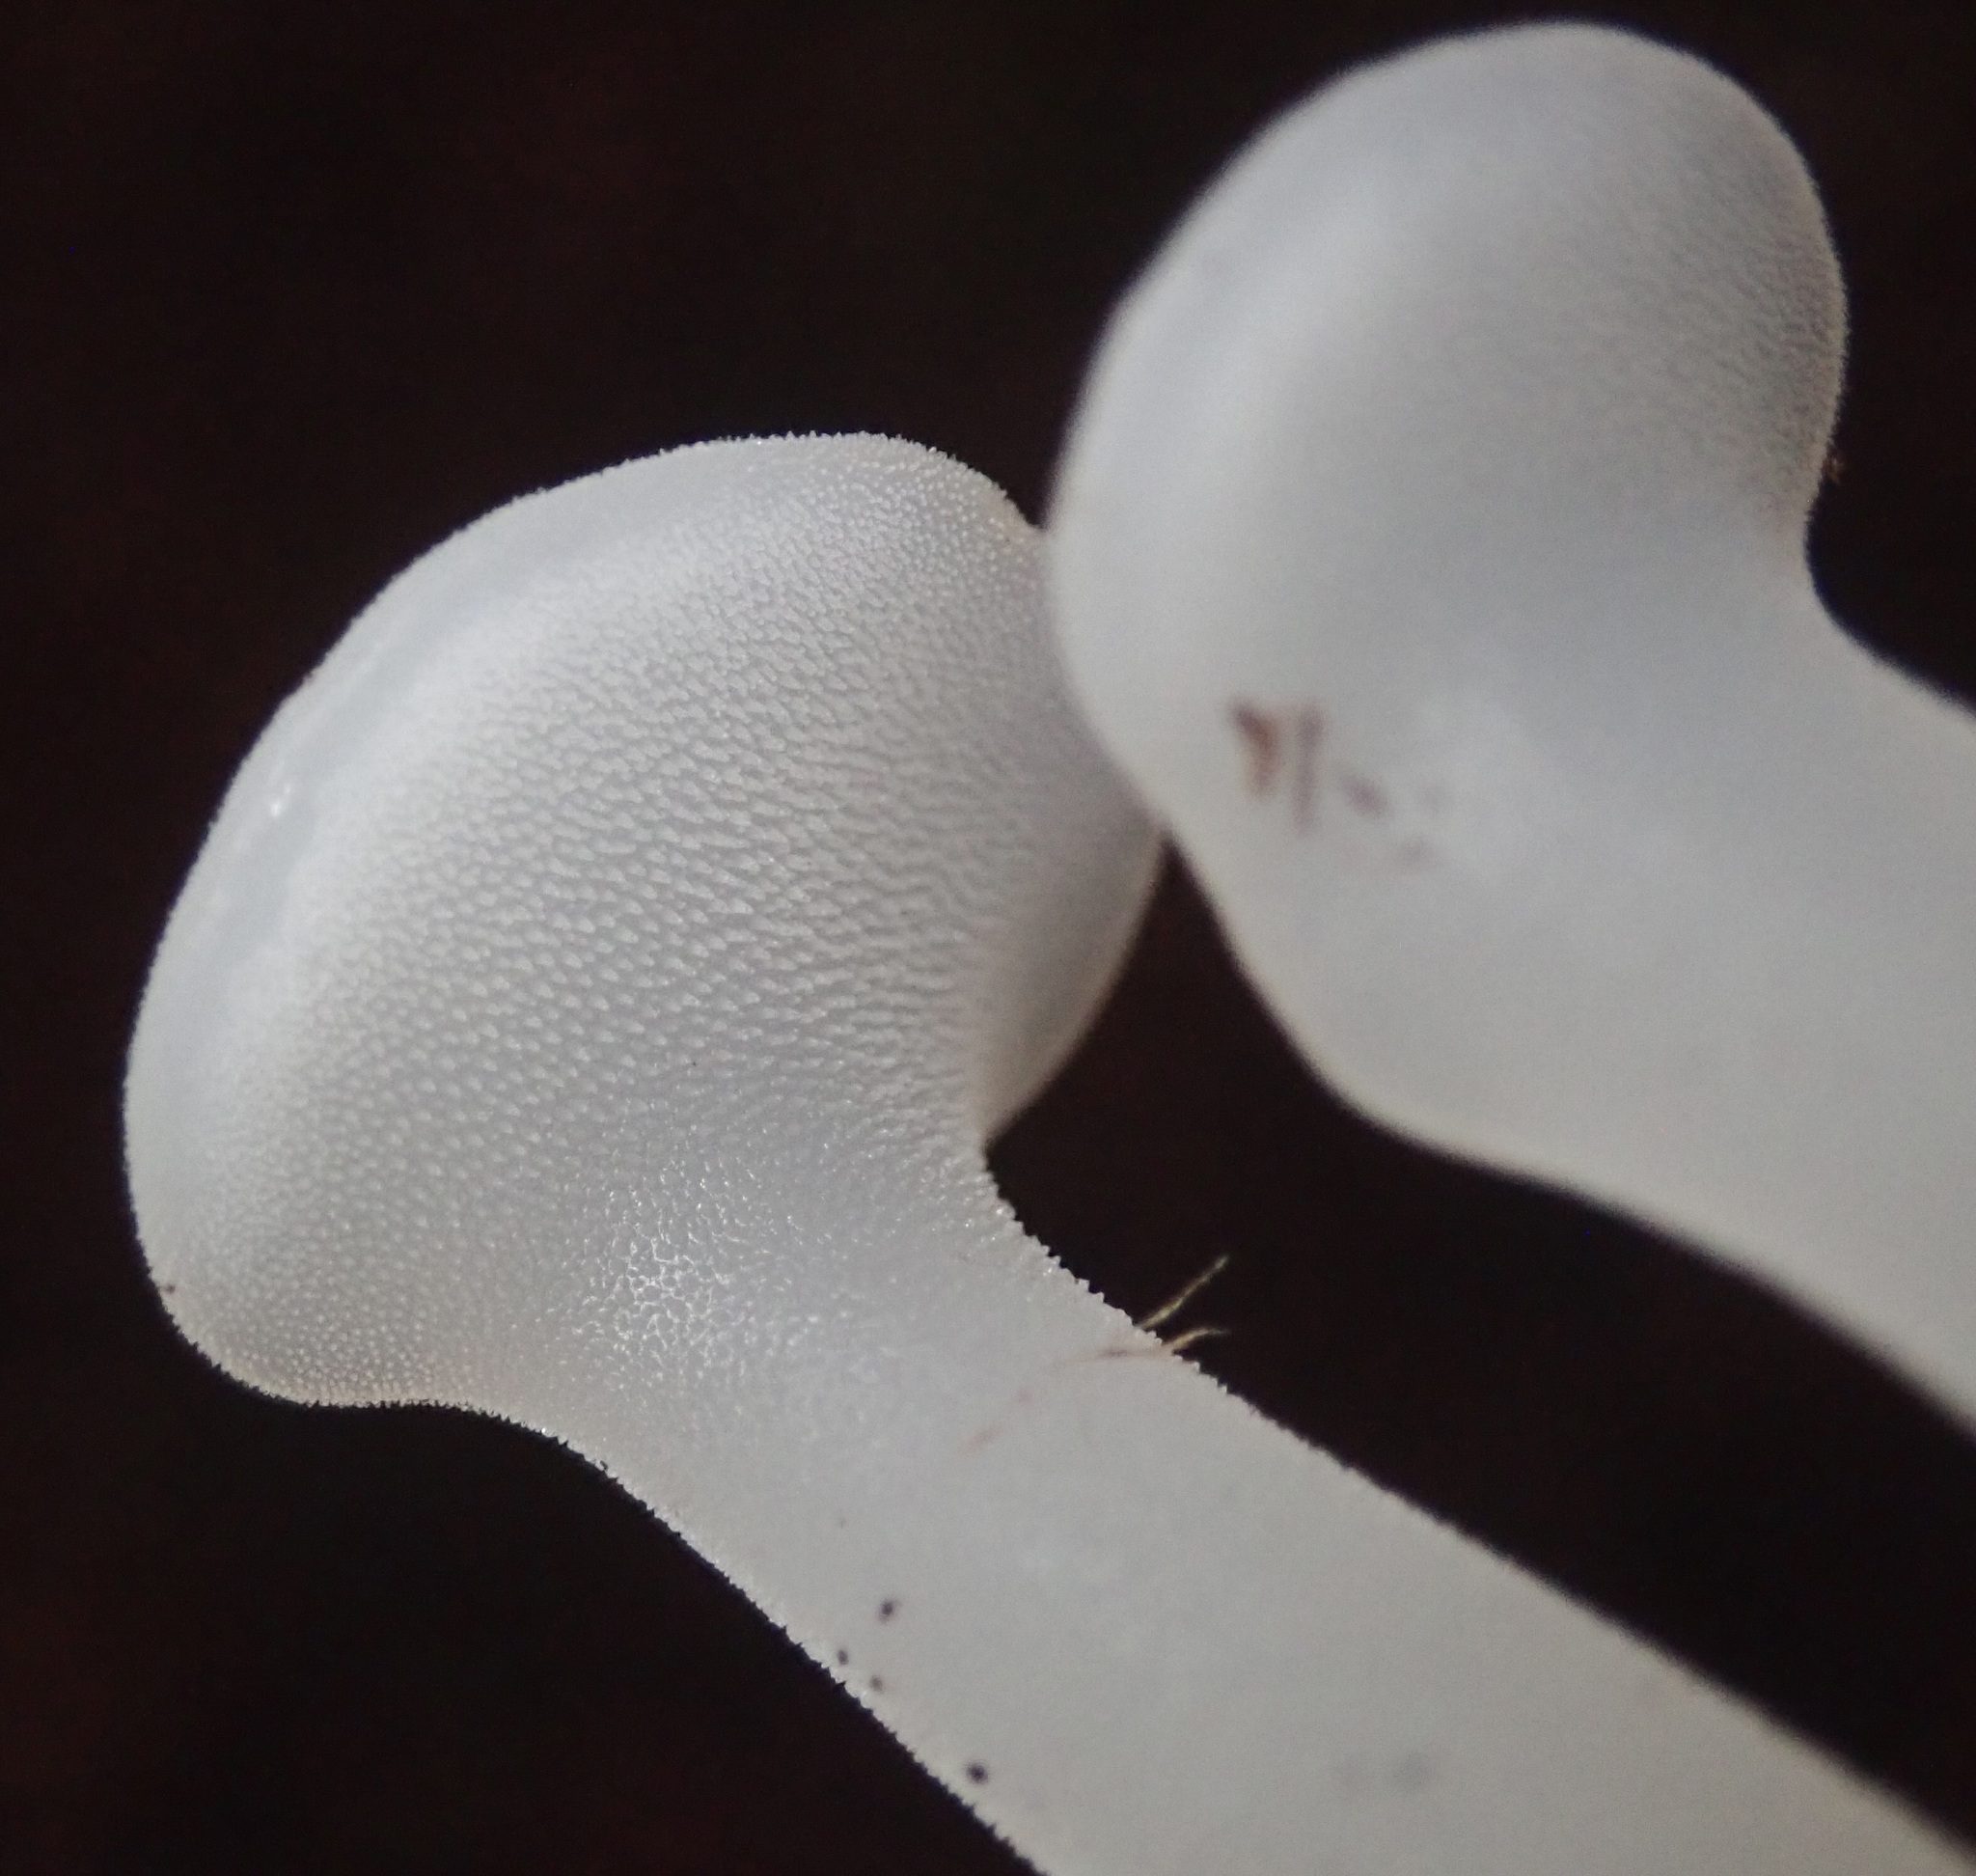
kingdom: Fungi
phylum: Basidiomycota
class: Agaricomycetes
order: Auriculariales
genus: Pseudohydnum
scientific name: Pseudohydnum gelatinosum
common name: Jelly tongue
